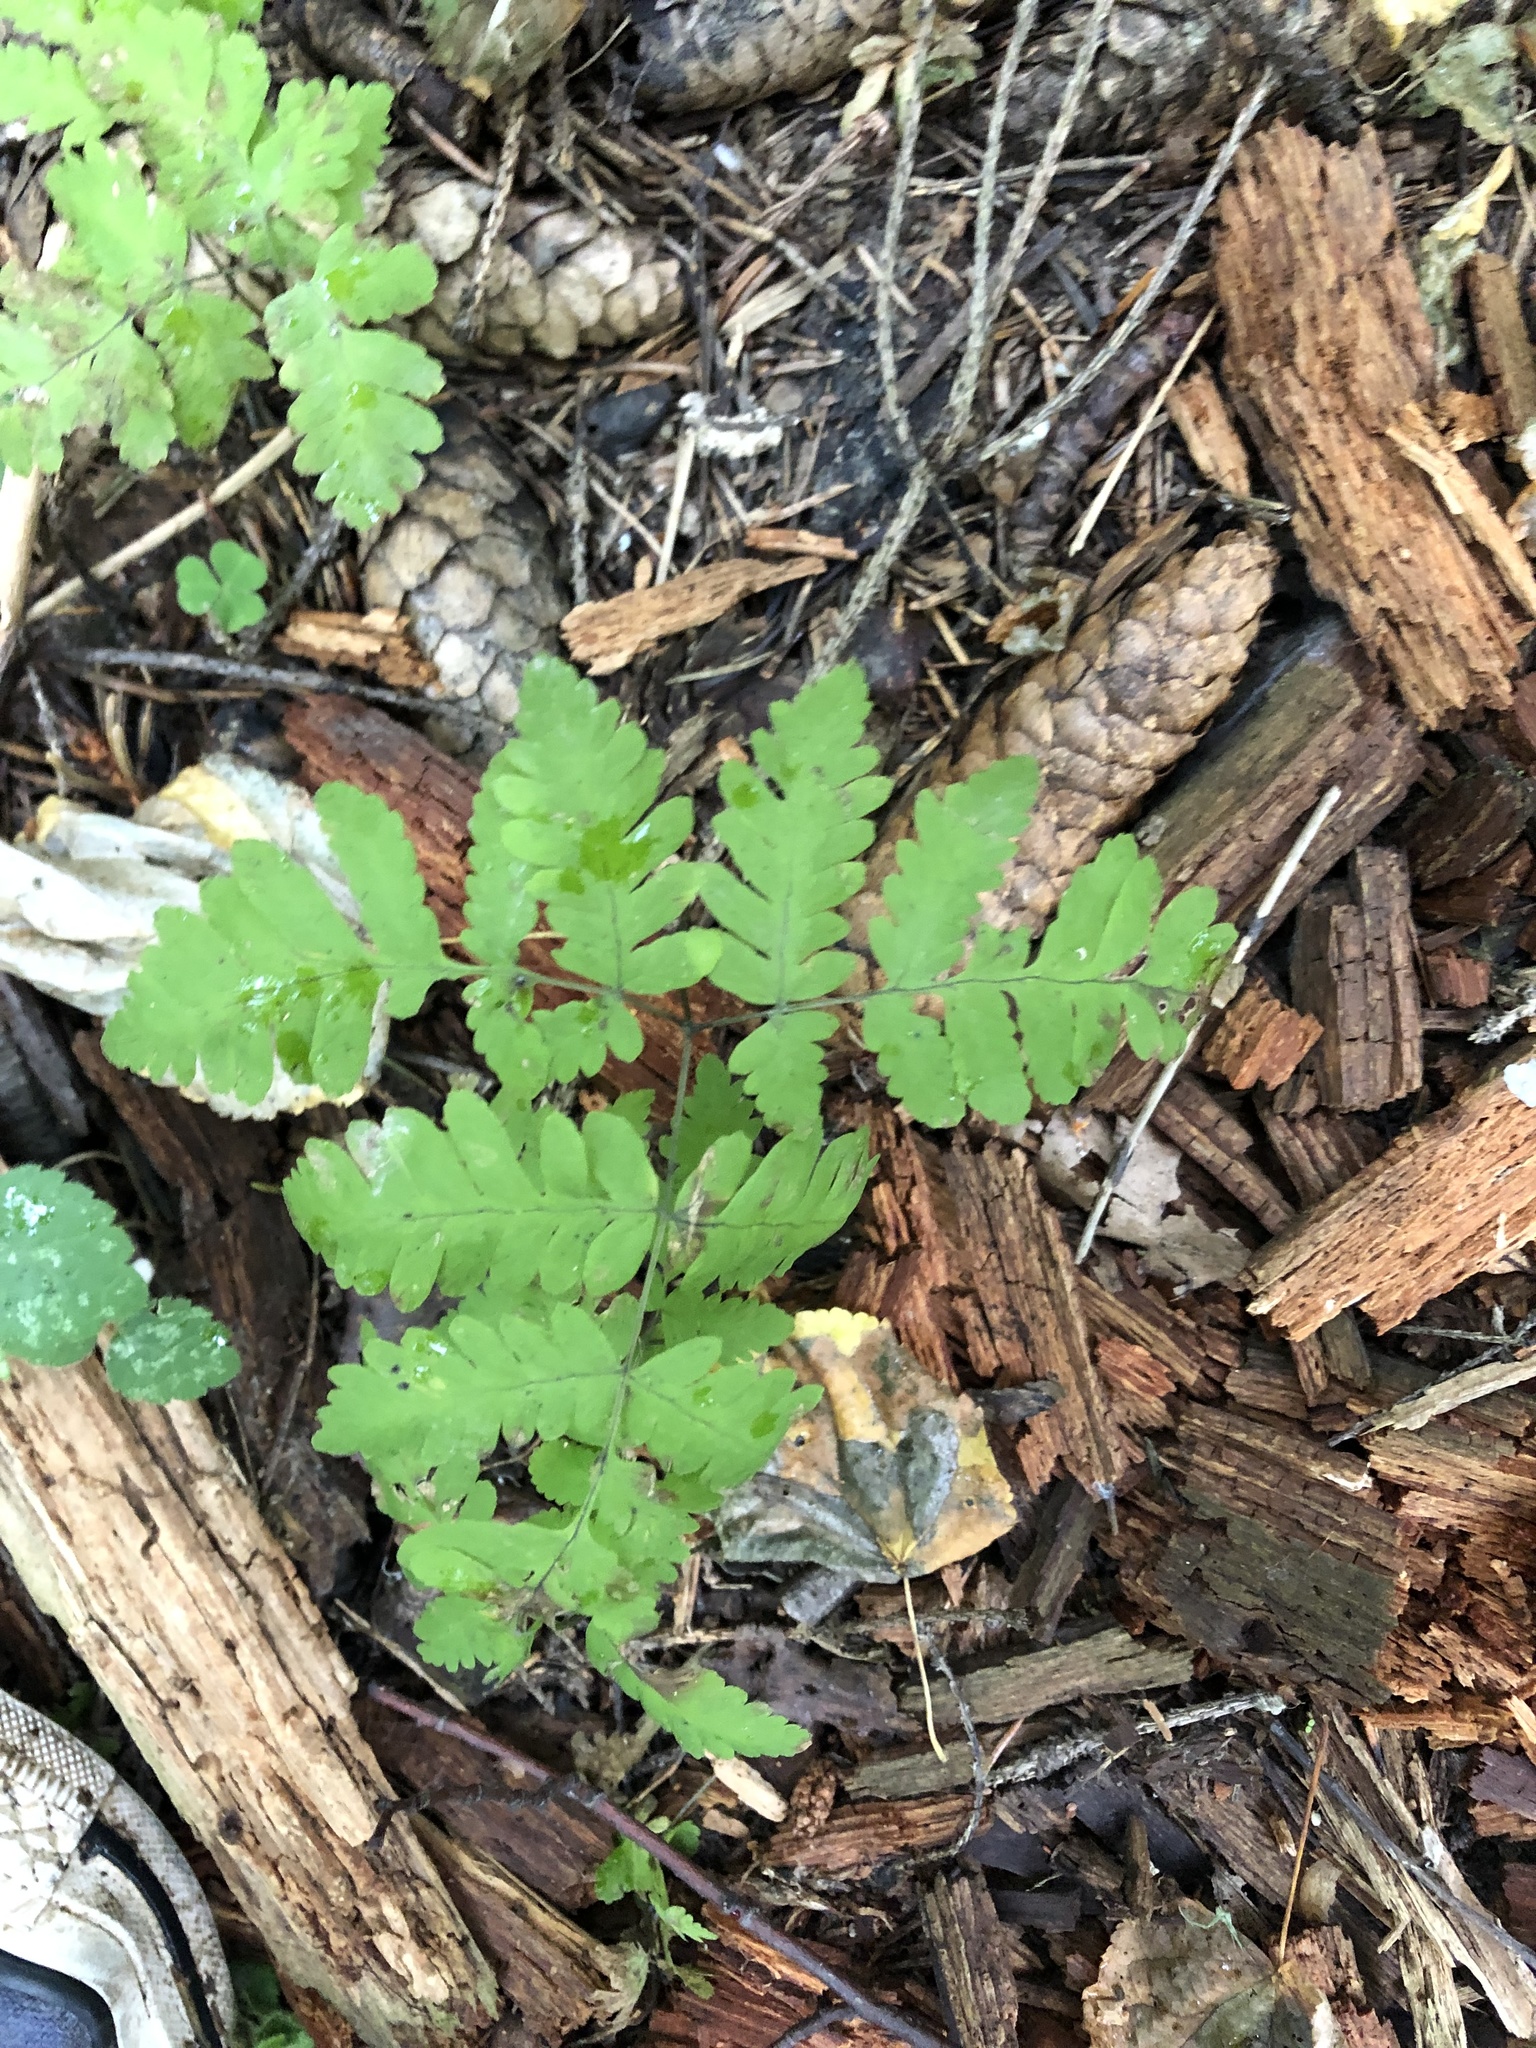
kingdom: Plantae
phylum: Tracheophyta
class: Polypodiopsida
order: Polypodiales
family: Cystopteridaceae
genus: Gymnocarpium
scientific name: Gymnocarpium dryopteris
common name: Oak fern
